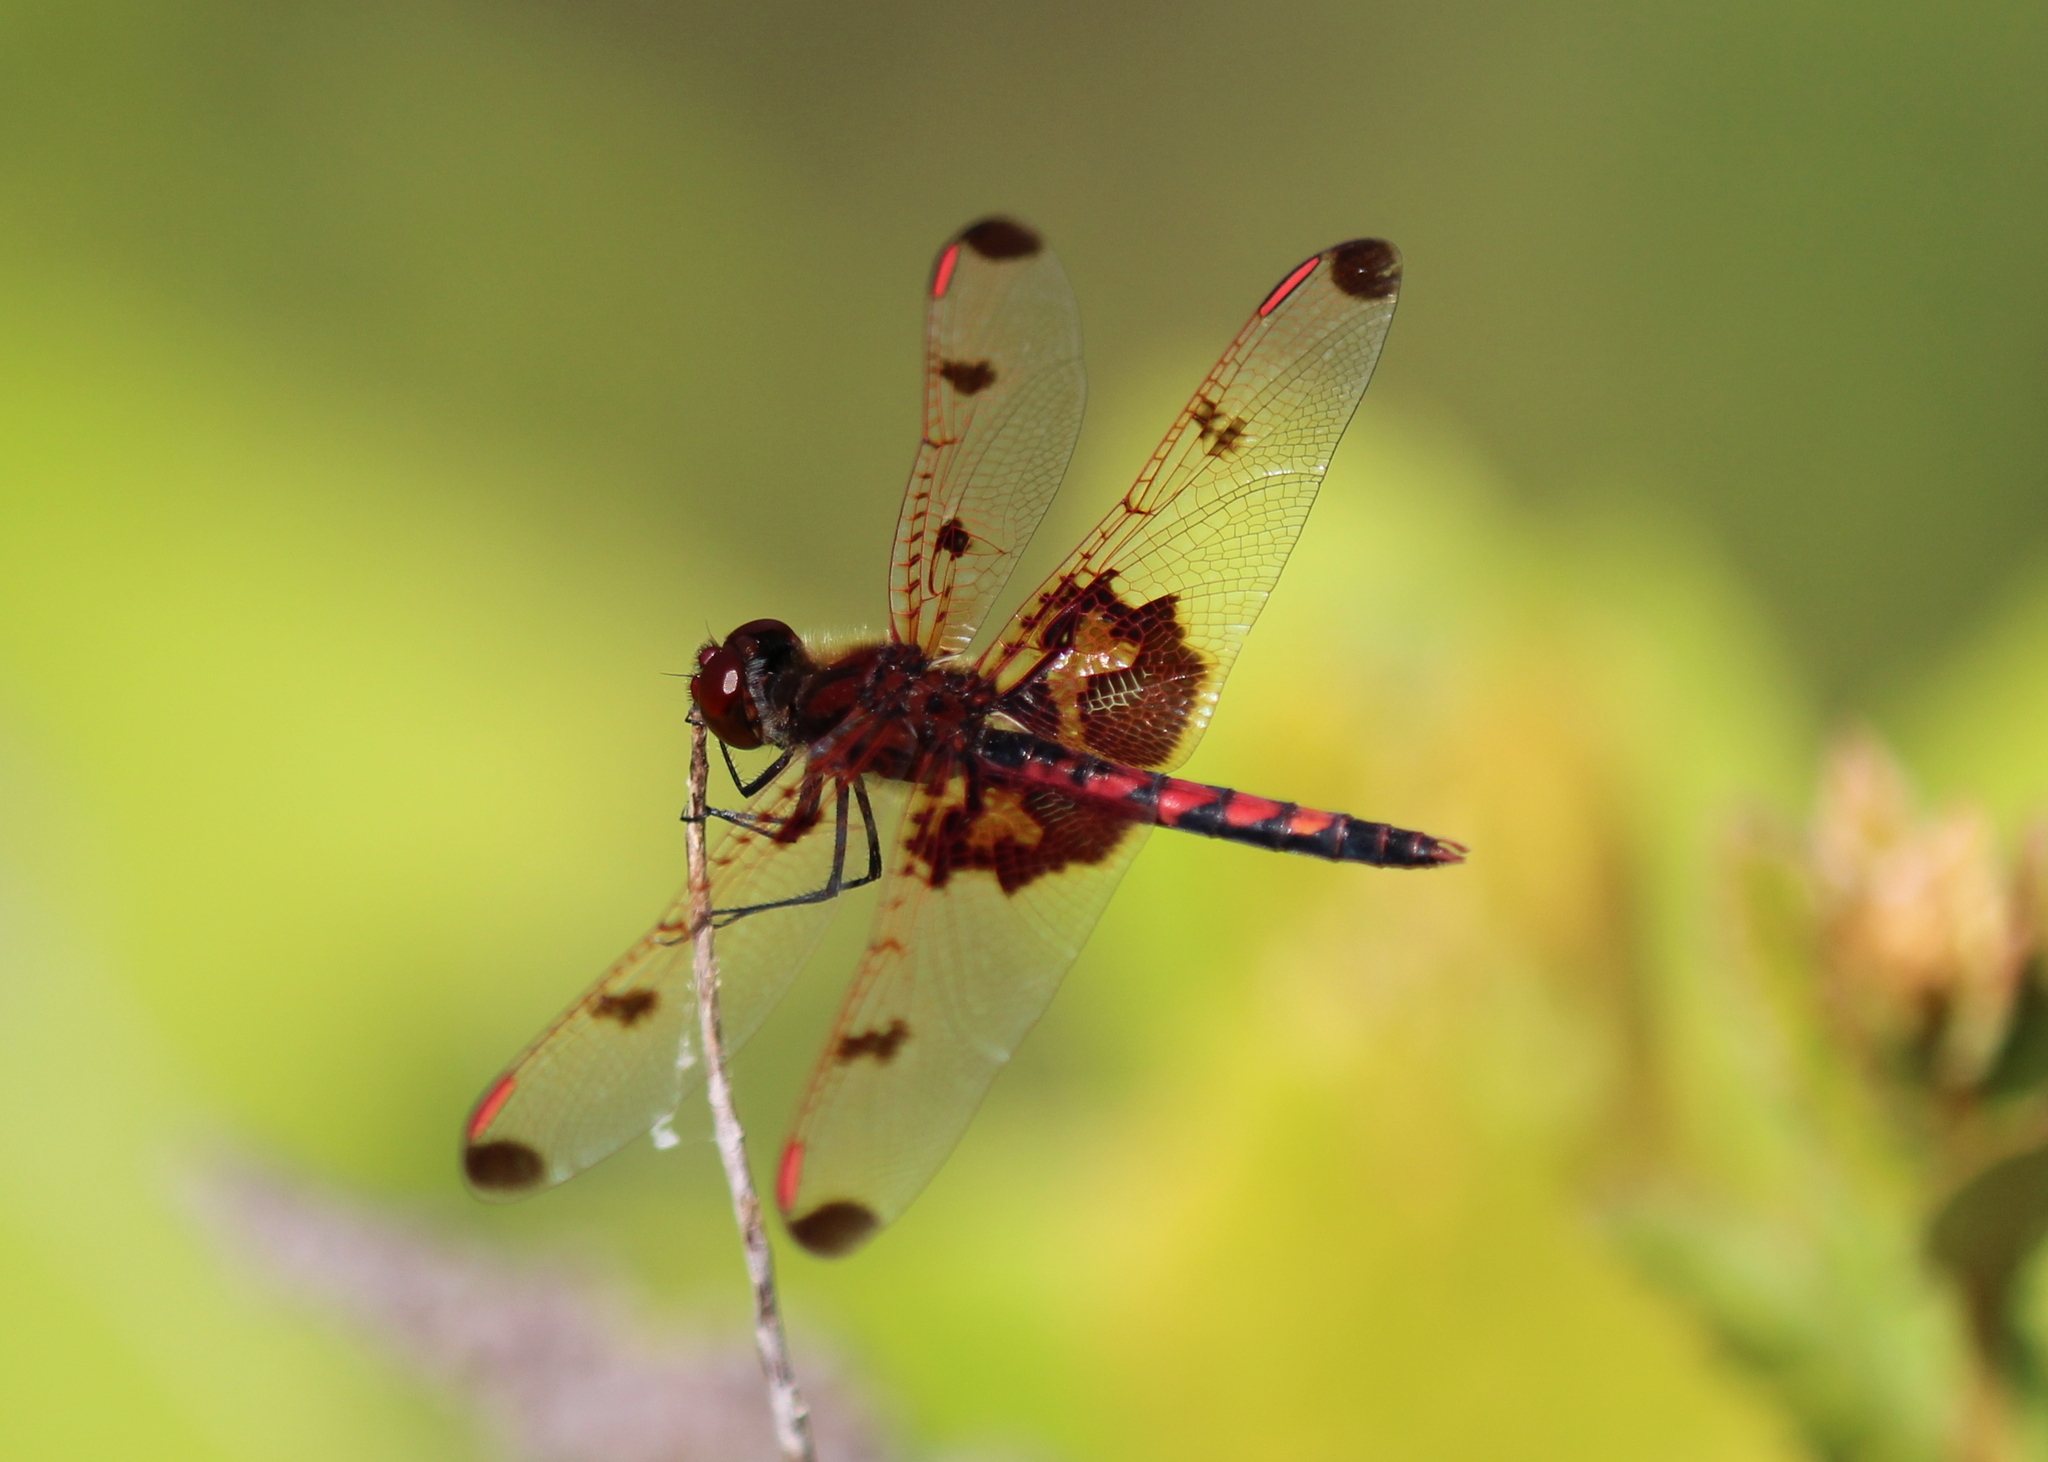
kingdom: Animalia
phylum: Arthropoda
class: Insecta
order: Odonata
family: Libellulidae
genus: Celithemis
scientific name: Celithemis elisa
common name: Calico pennant
